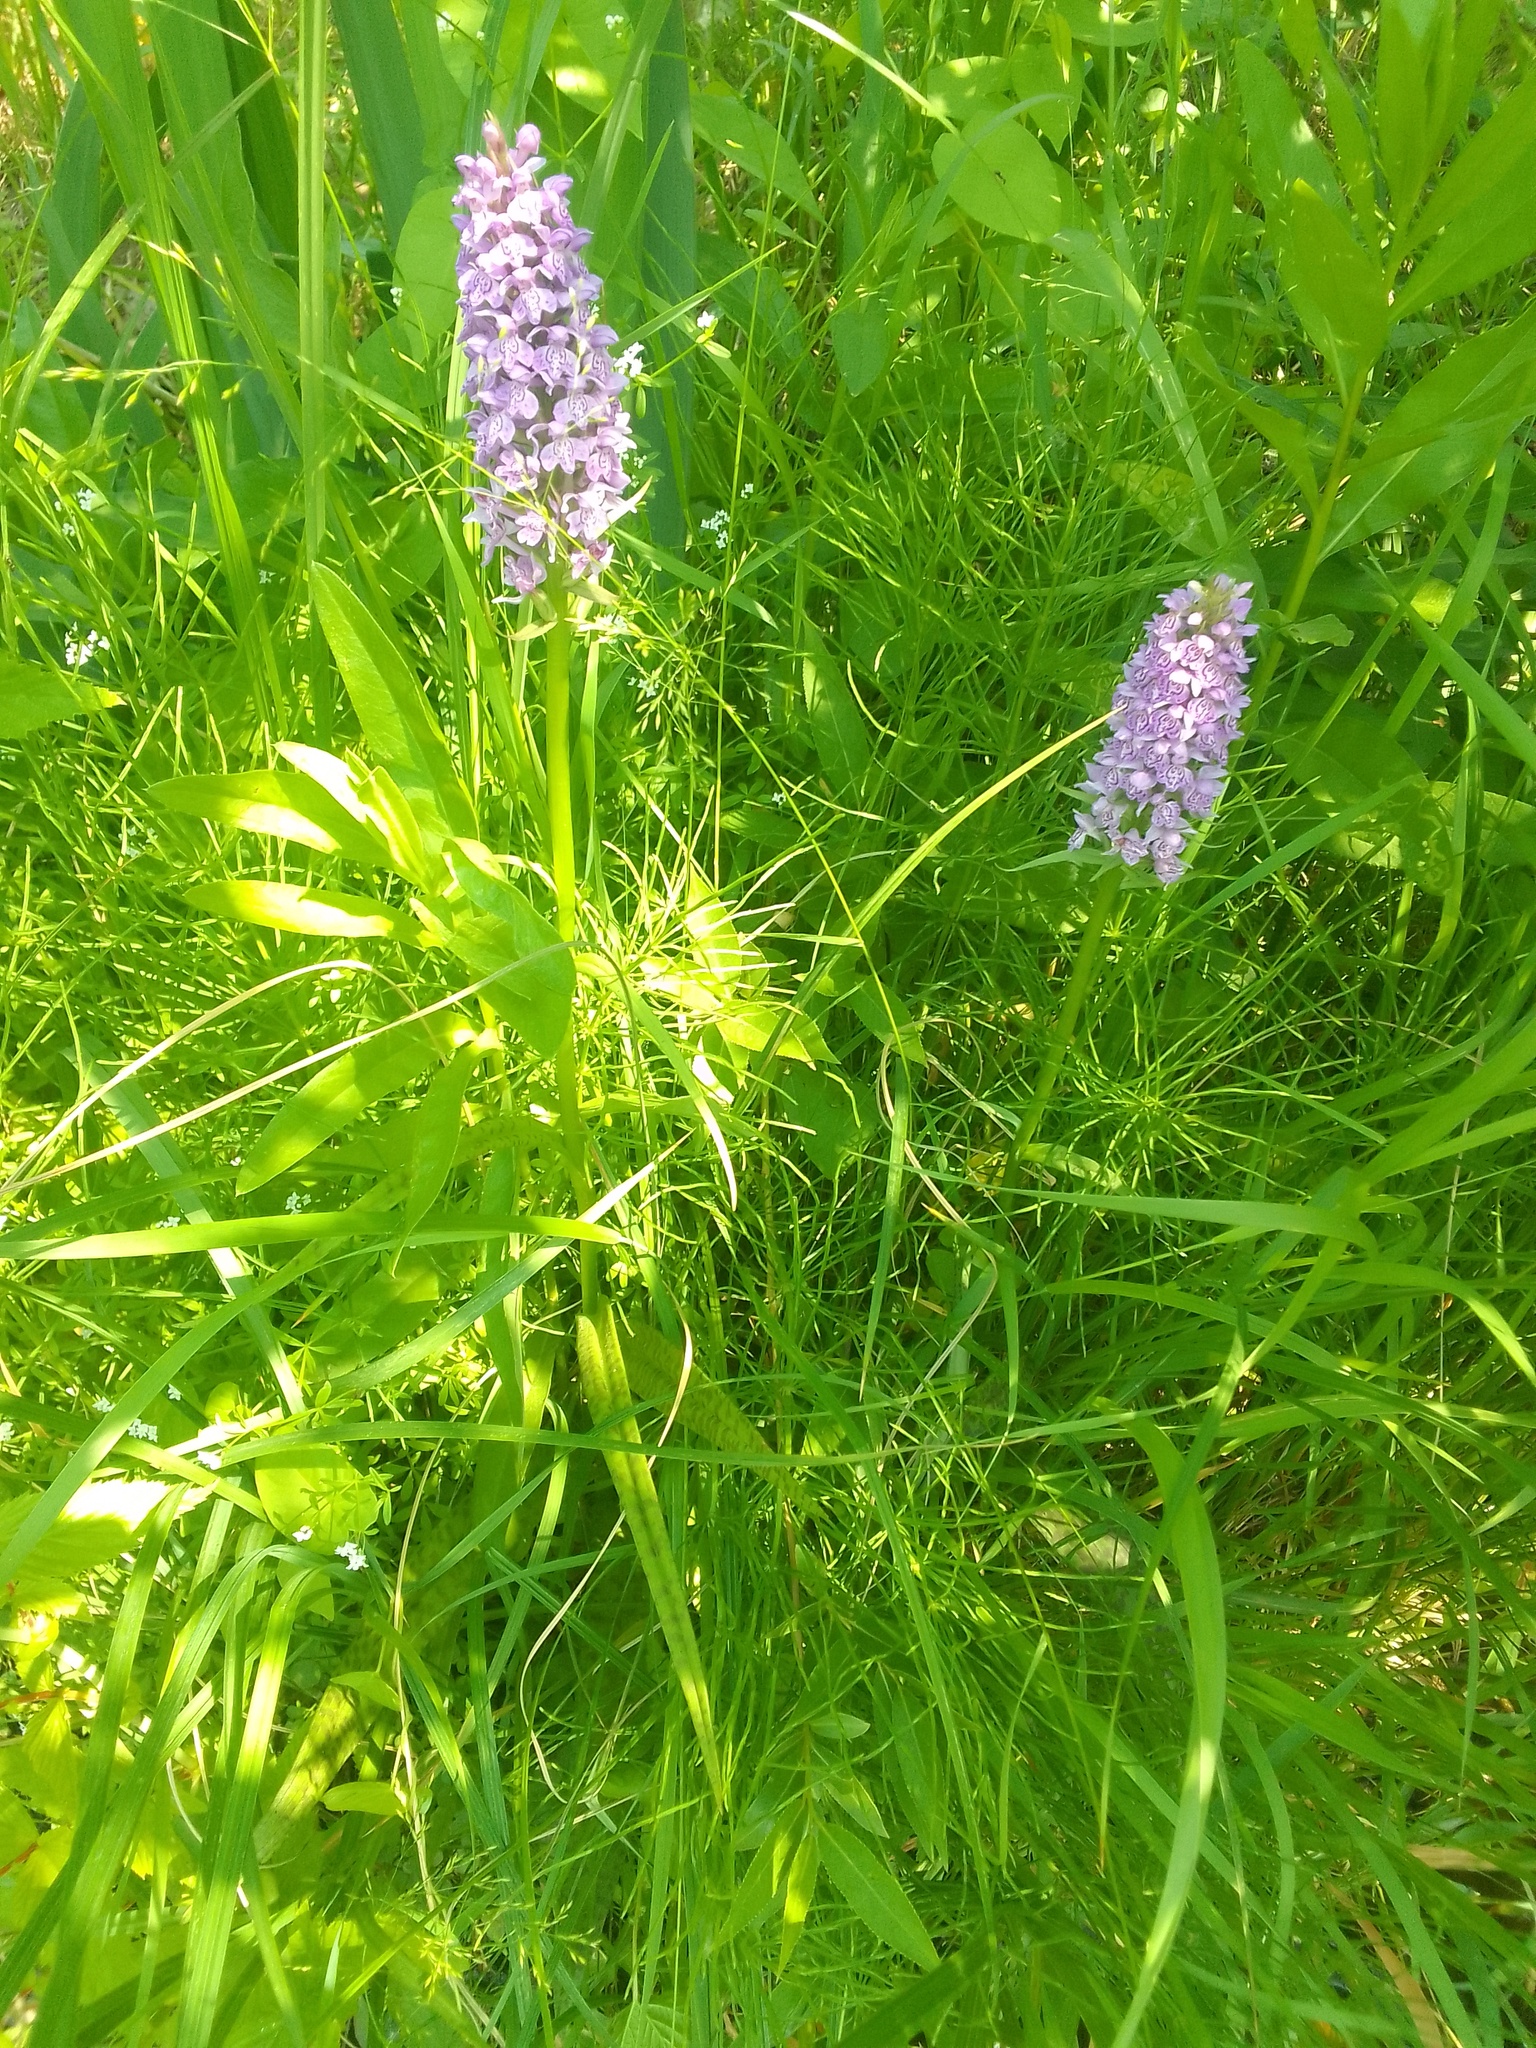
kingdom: Plantae
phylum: Tracheophyta
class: Liliopsida
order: Asparagales
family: Orchidaceae
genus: Dactylorhiza
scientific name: Dactylorhiza majalis
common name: Marsh orchid
